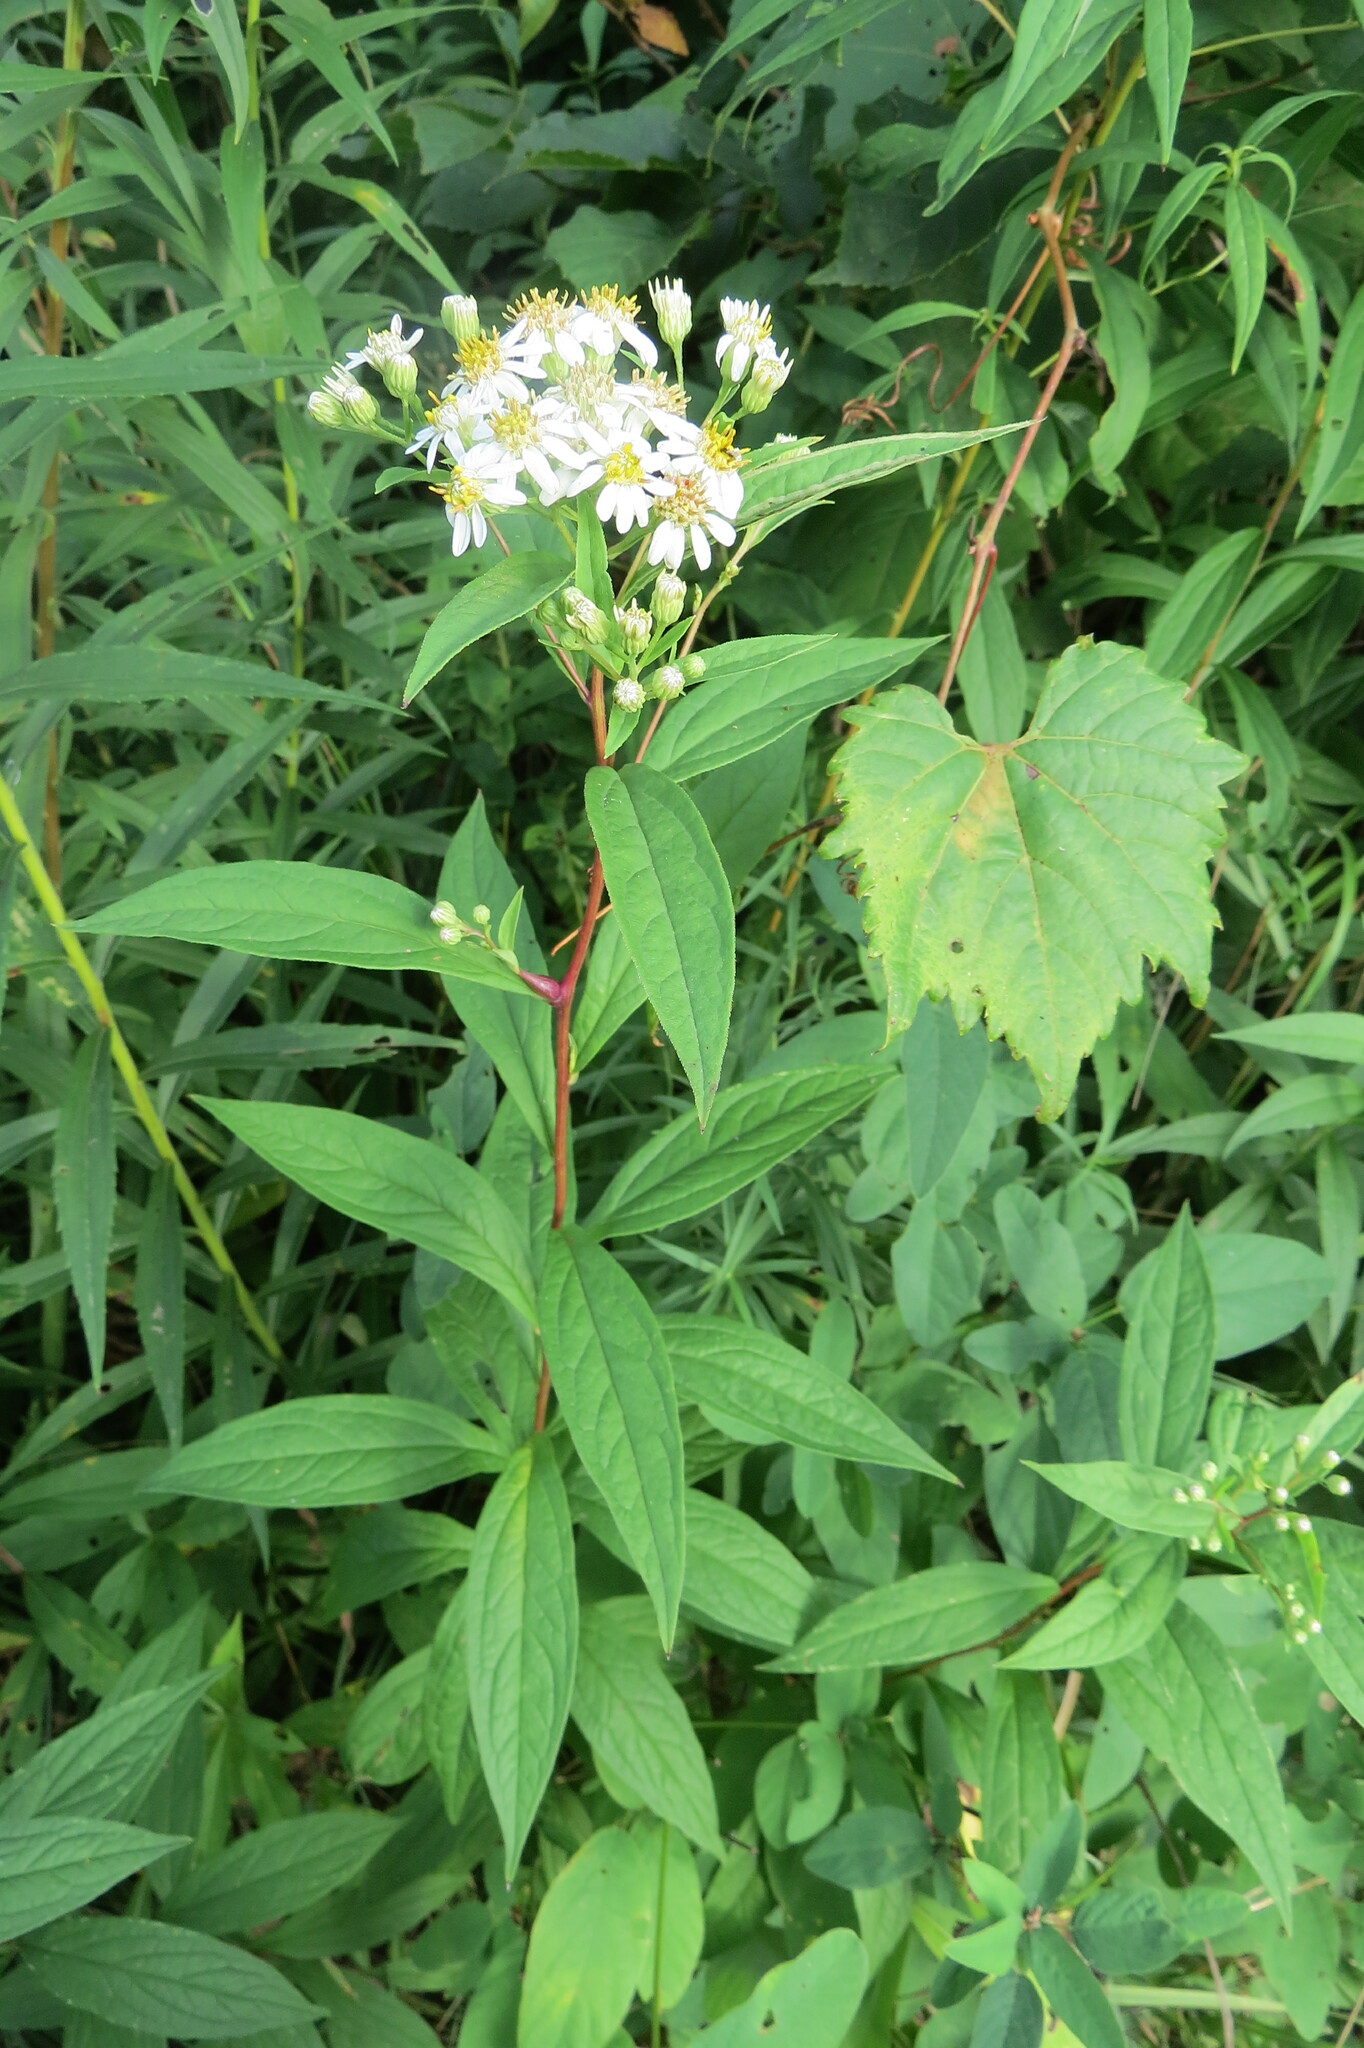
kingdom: Plantae
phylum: Tracheophyta
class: Magnoliopsida
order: Asterales
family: Asteraceae
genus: Doellingeria
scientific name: Doellingeria umbellata
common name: Flat-top white aster
